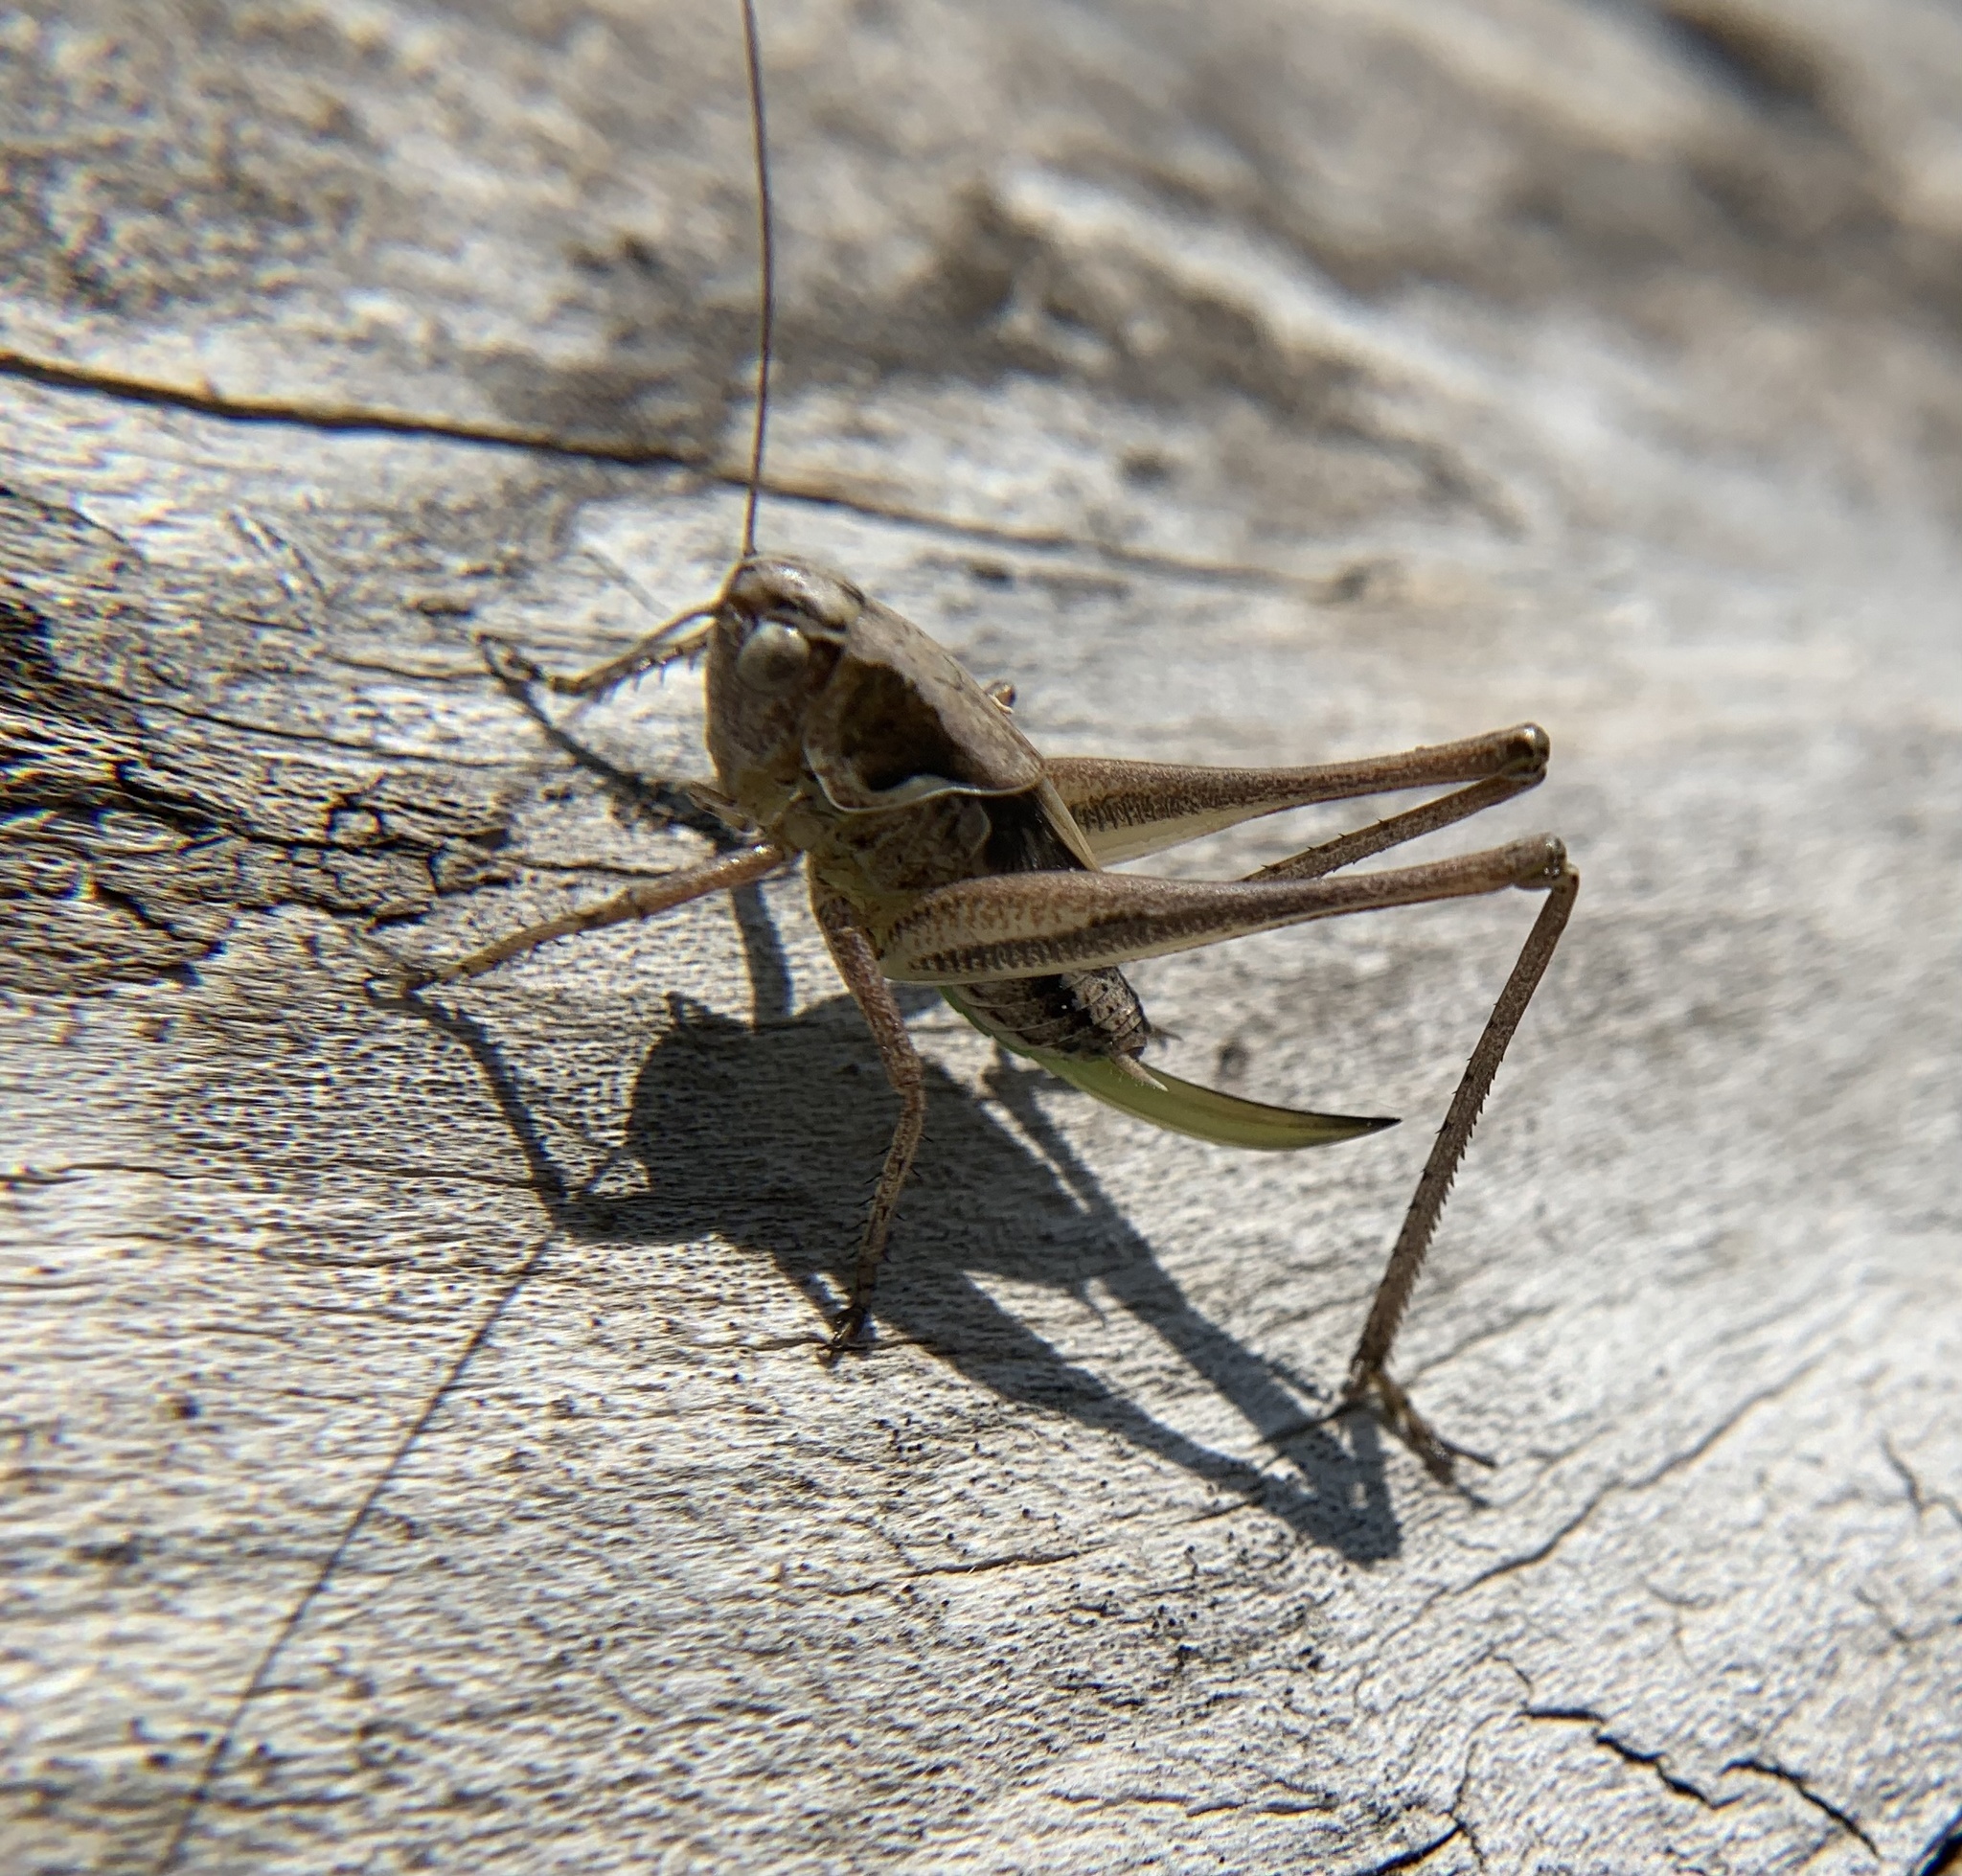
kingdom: Animalia
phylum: Arthropoda
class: Insecta
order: Orthoptera
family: Tettigoniidae
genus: Platycleis
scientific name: Platycleis albopunctata
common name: Grey bush-cricket
